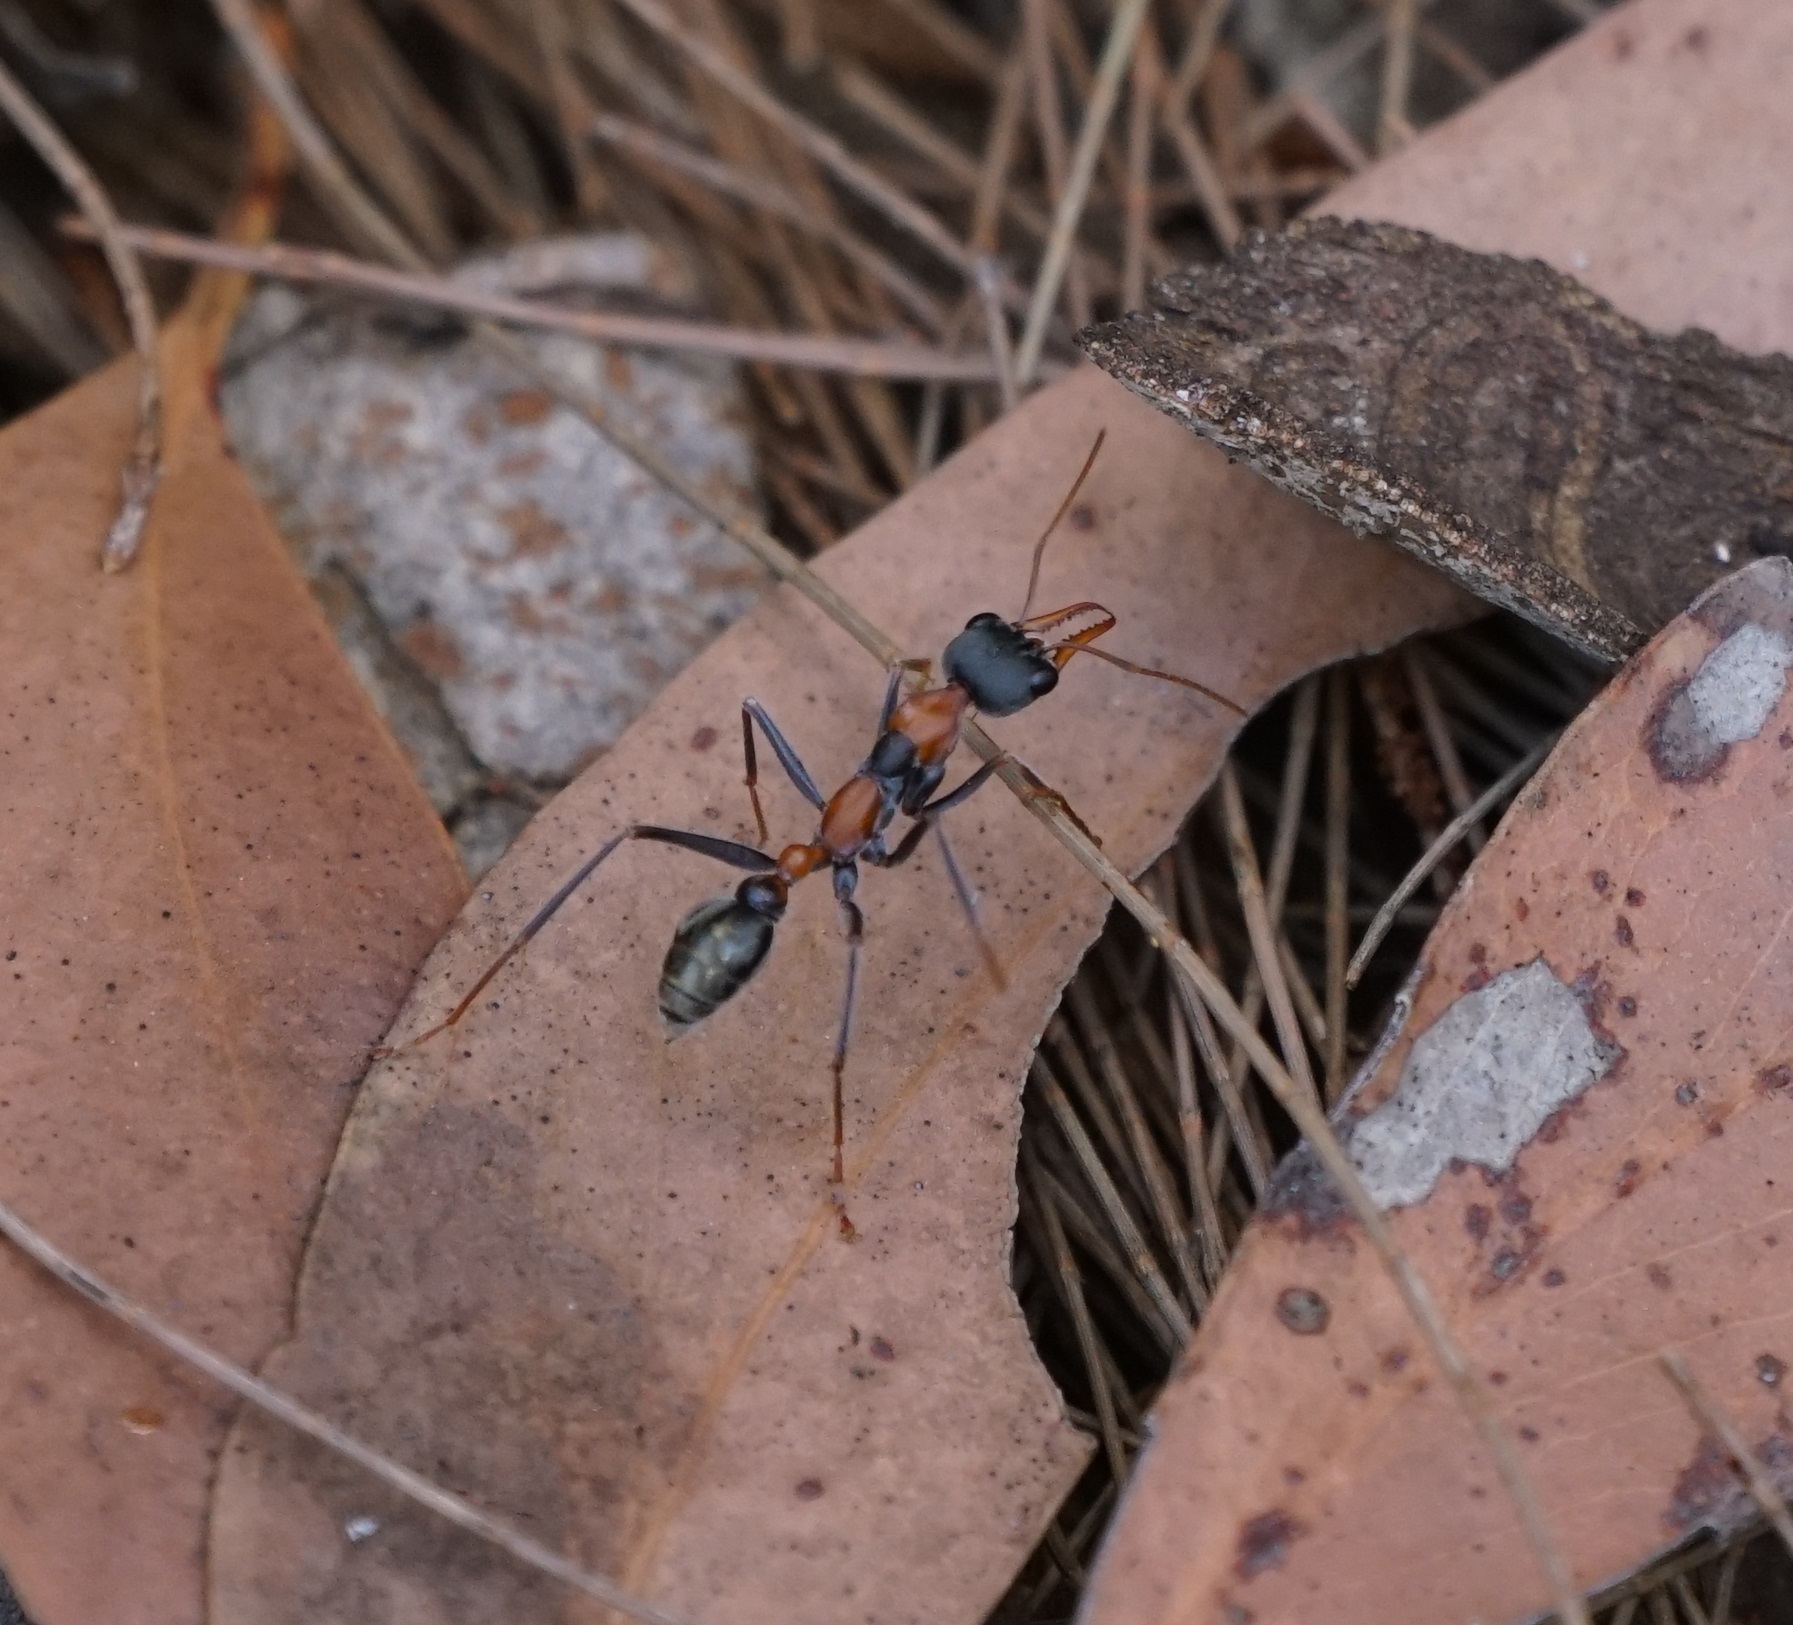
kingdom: Animalia
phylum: Arthropoda
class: Insecta
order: Hymenoptera
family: Formicidae
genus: Myrmecia
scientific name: Myrmecia nigrocincta
